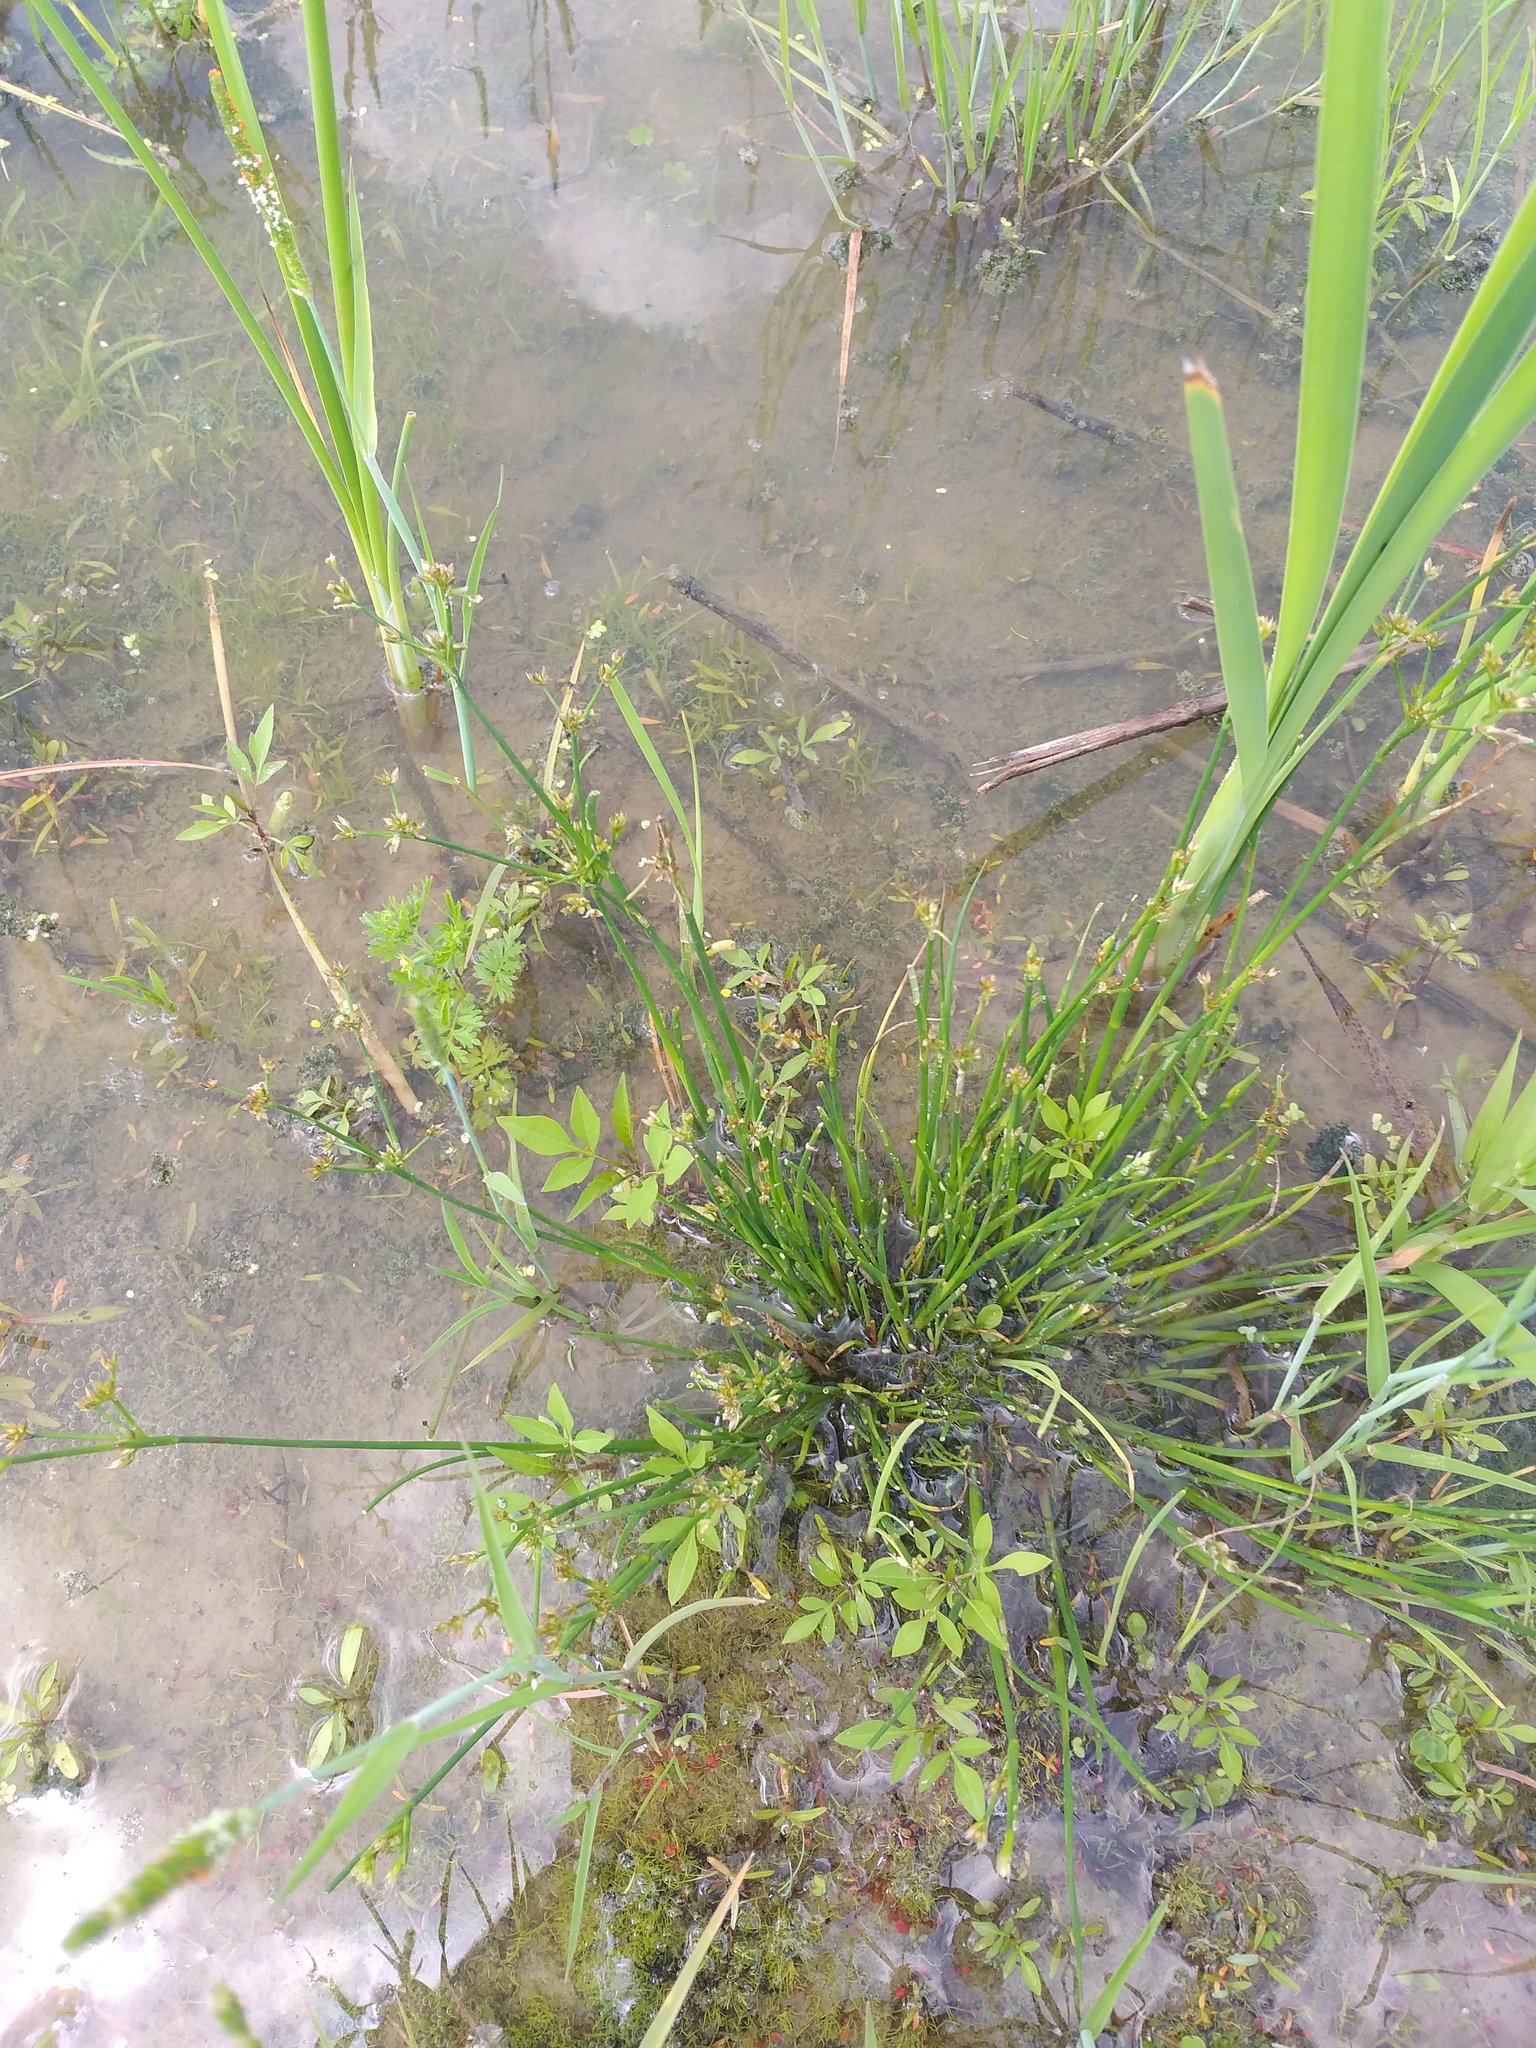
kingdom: Plantae
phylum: Tracheophyta
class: Liliopsida
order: Poales
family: Juncaceae
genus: Juncus
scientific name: Juncus articulatus
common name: Jointed rush
